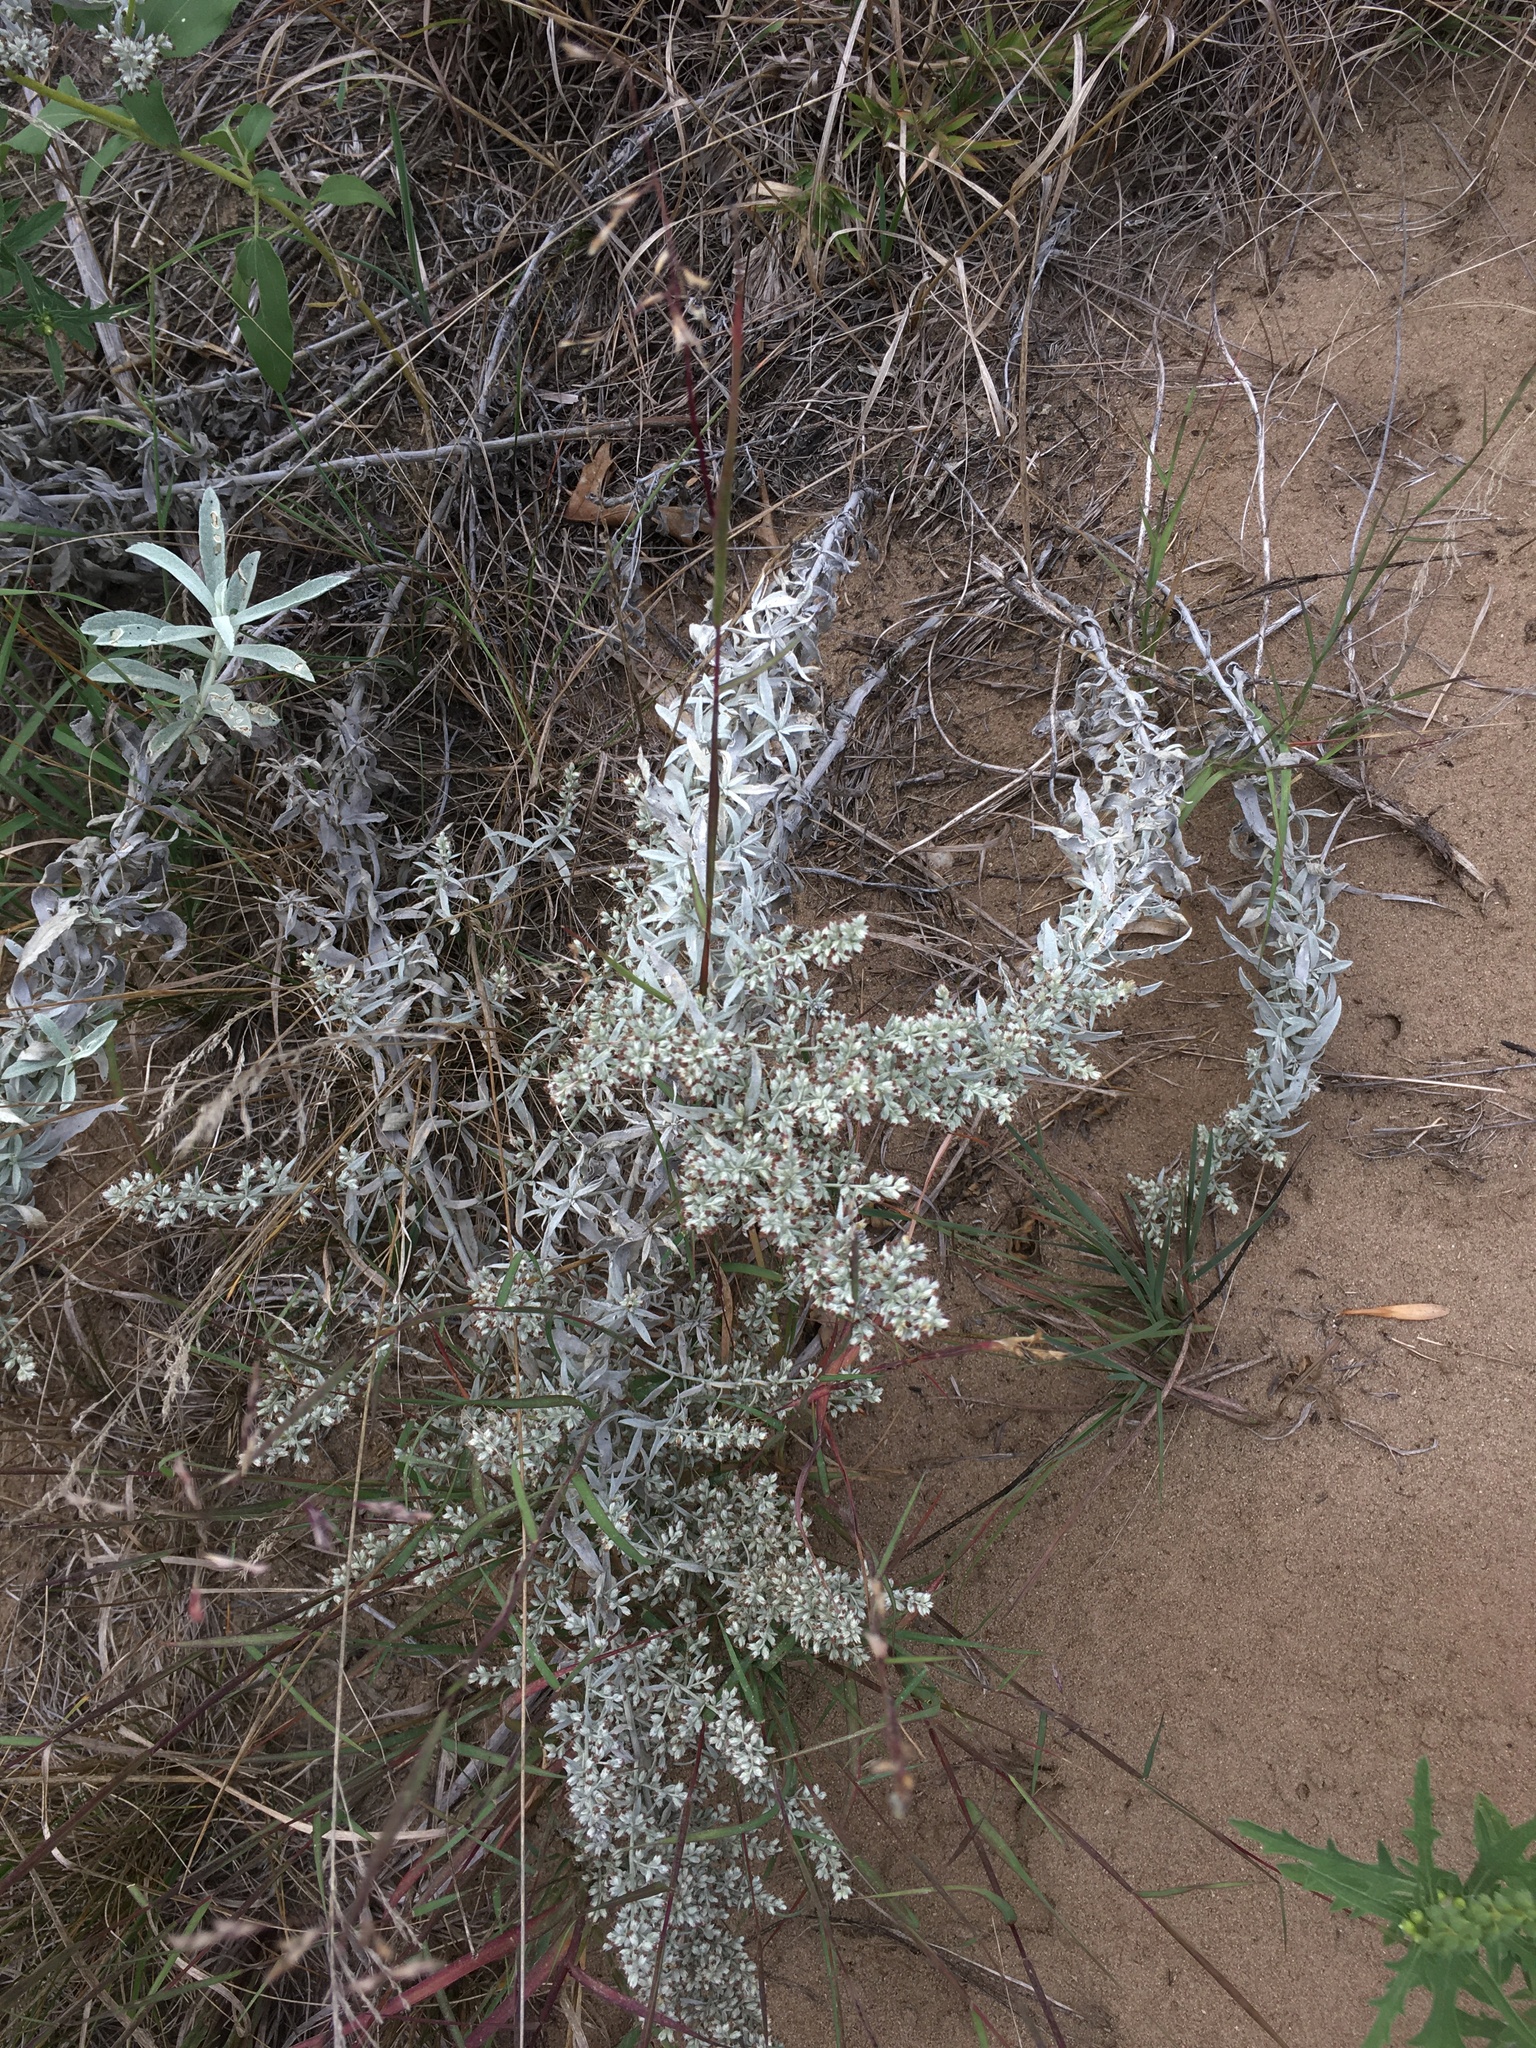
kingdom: Plantae
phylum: Tracheophyta
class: Magnoliopsida
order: Asterales
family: Asteraceae
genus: Artemisia
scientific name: Artemisia ludoviciana
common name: Western mugwort
